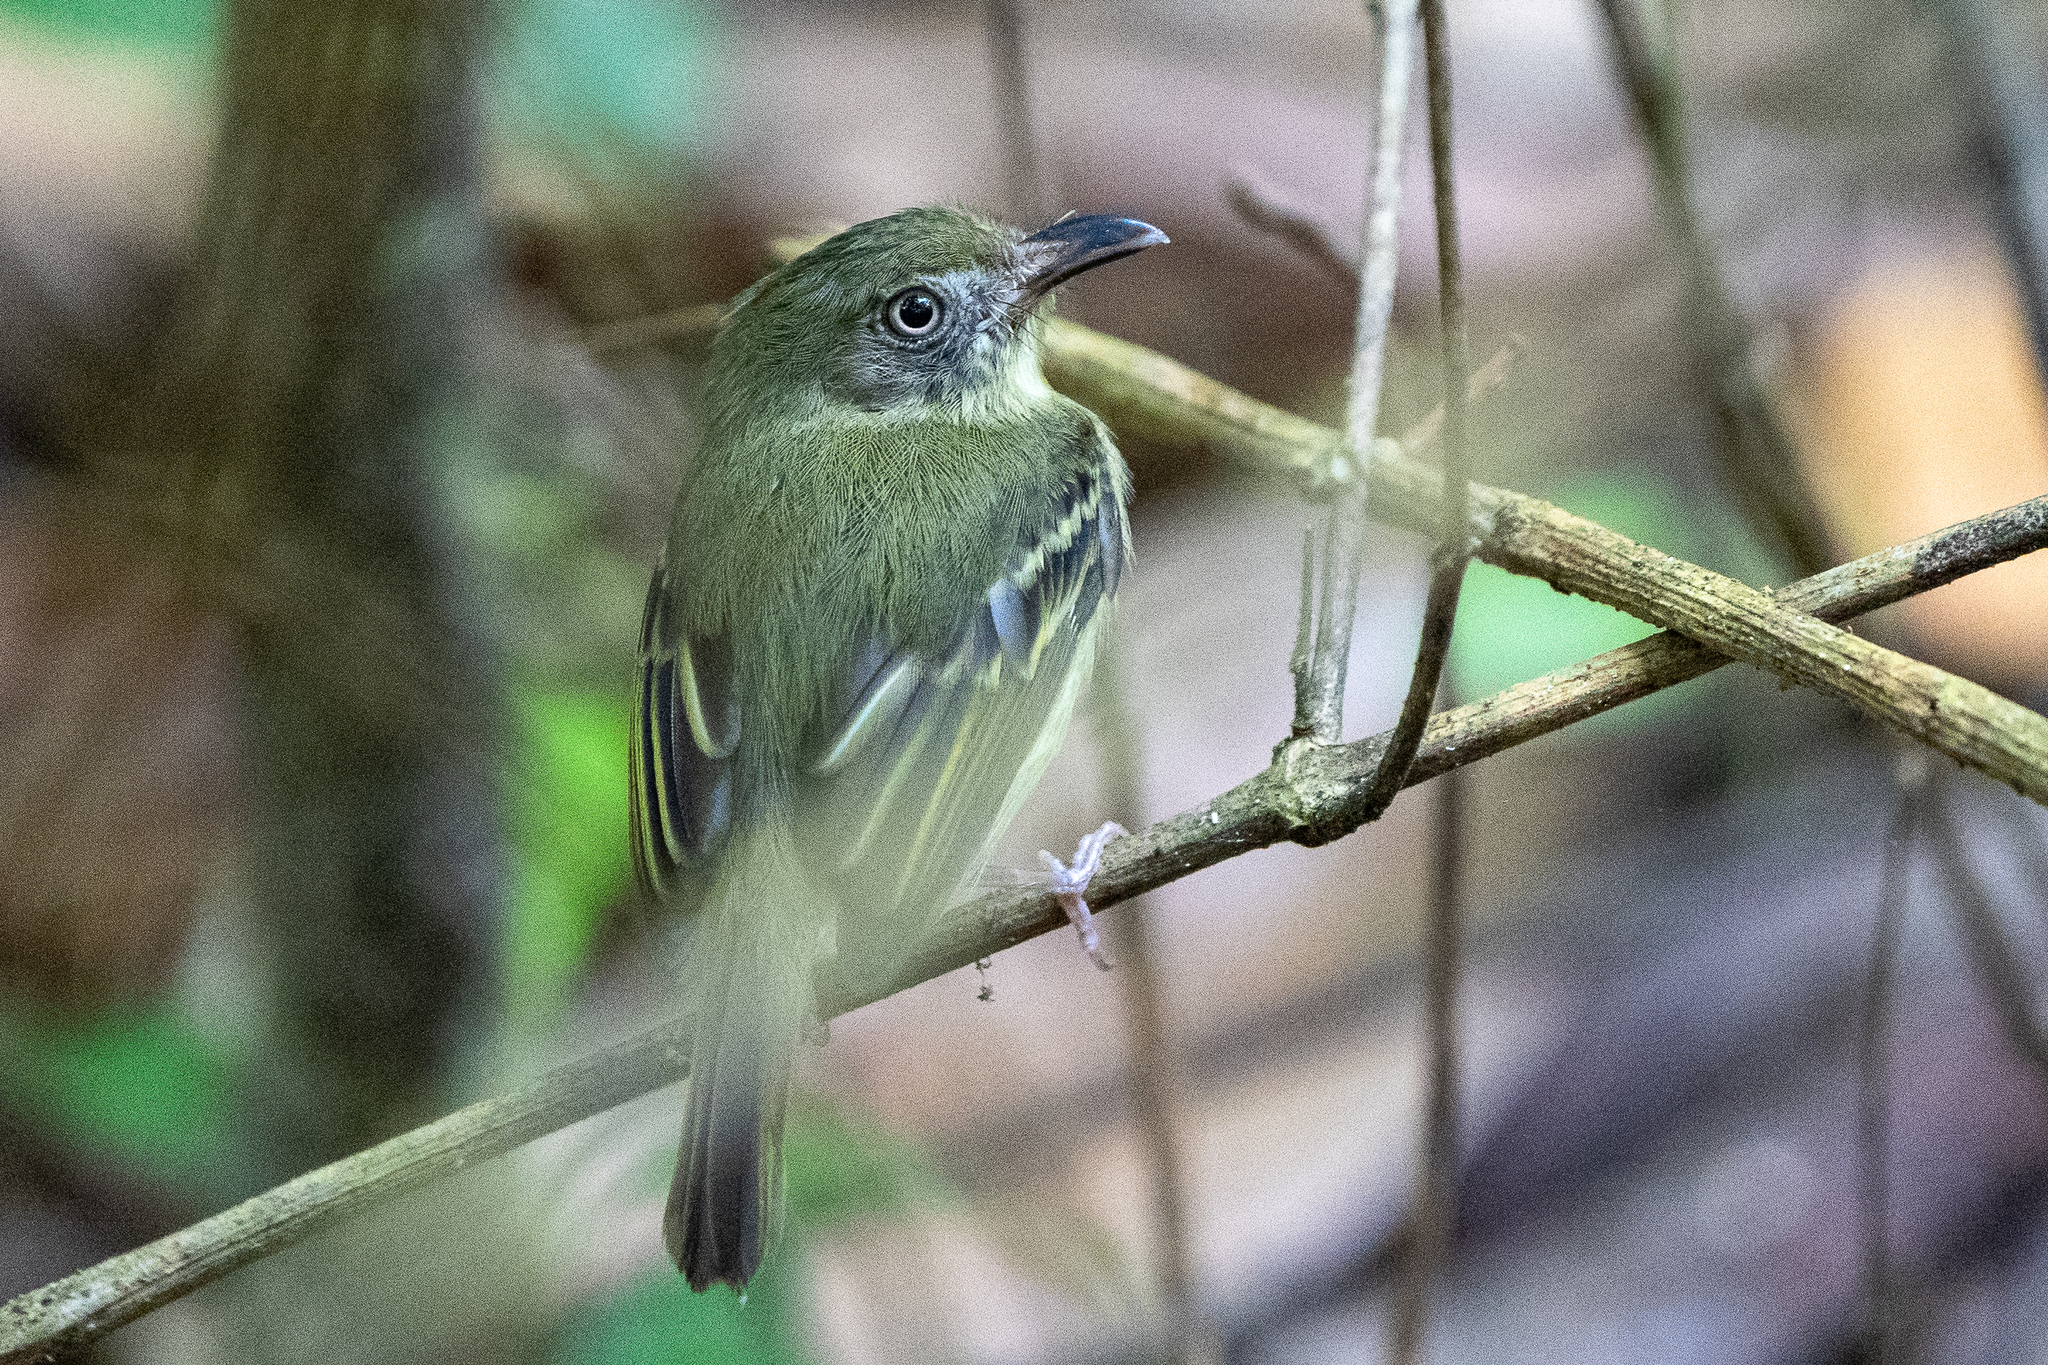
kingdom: Animalia
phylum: Chordata
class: Aves
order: Passeriformes
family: Tyrannidae
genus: Oncostoma
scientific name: Oncostoma olivaceum
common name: Southern bentbill
